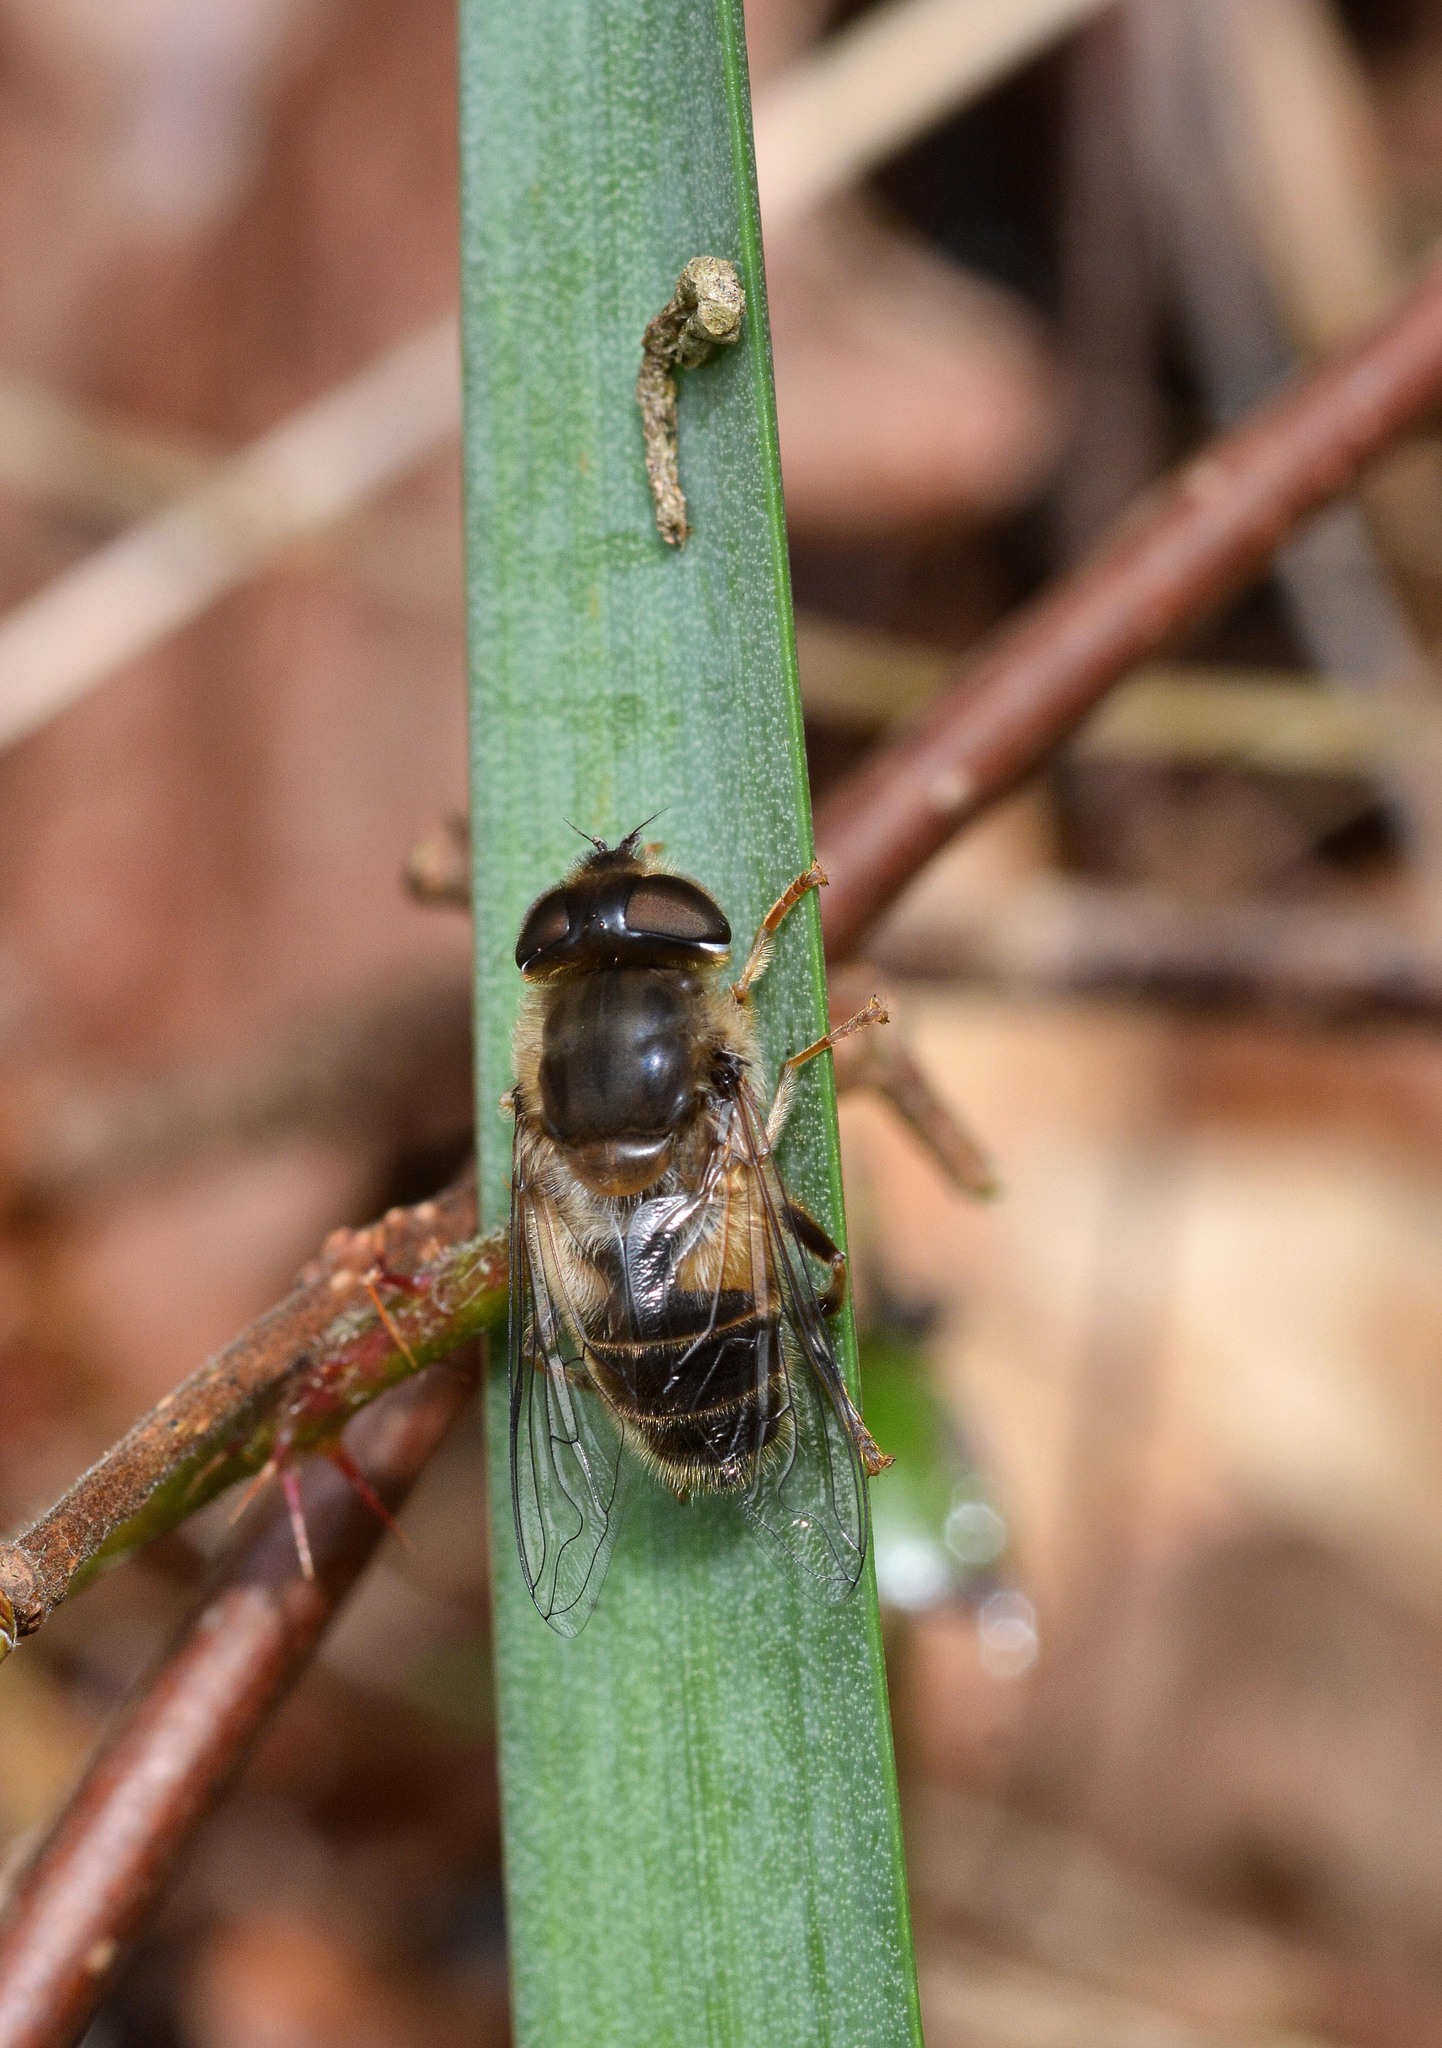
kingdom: Animalia
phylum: Arthropoda
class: Insecta
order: Diptera
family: Syrphidae
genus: Eristalis
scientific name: Eristalis pertinax
